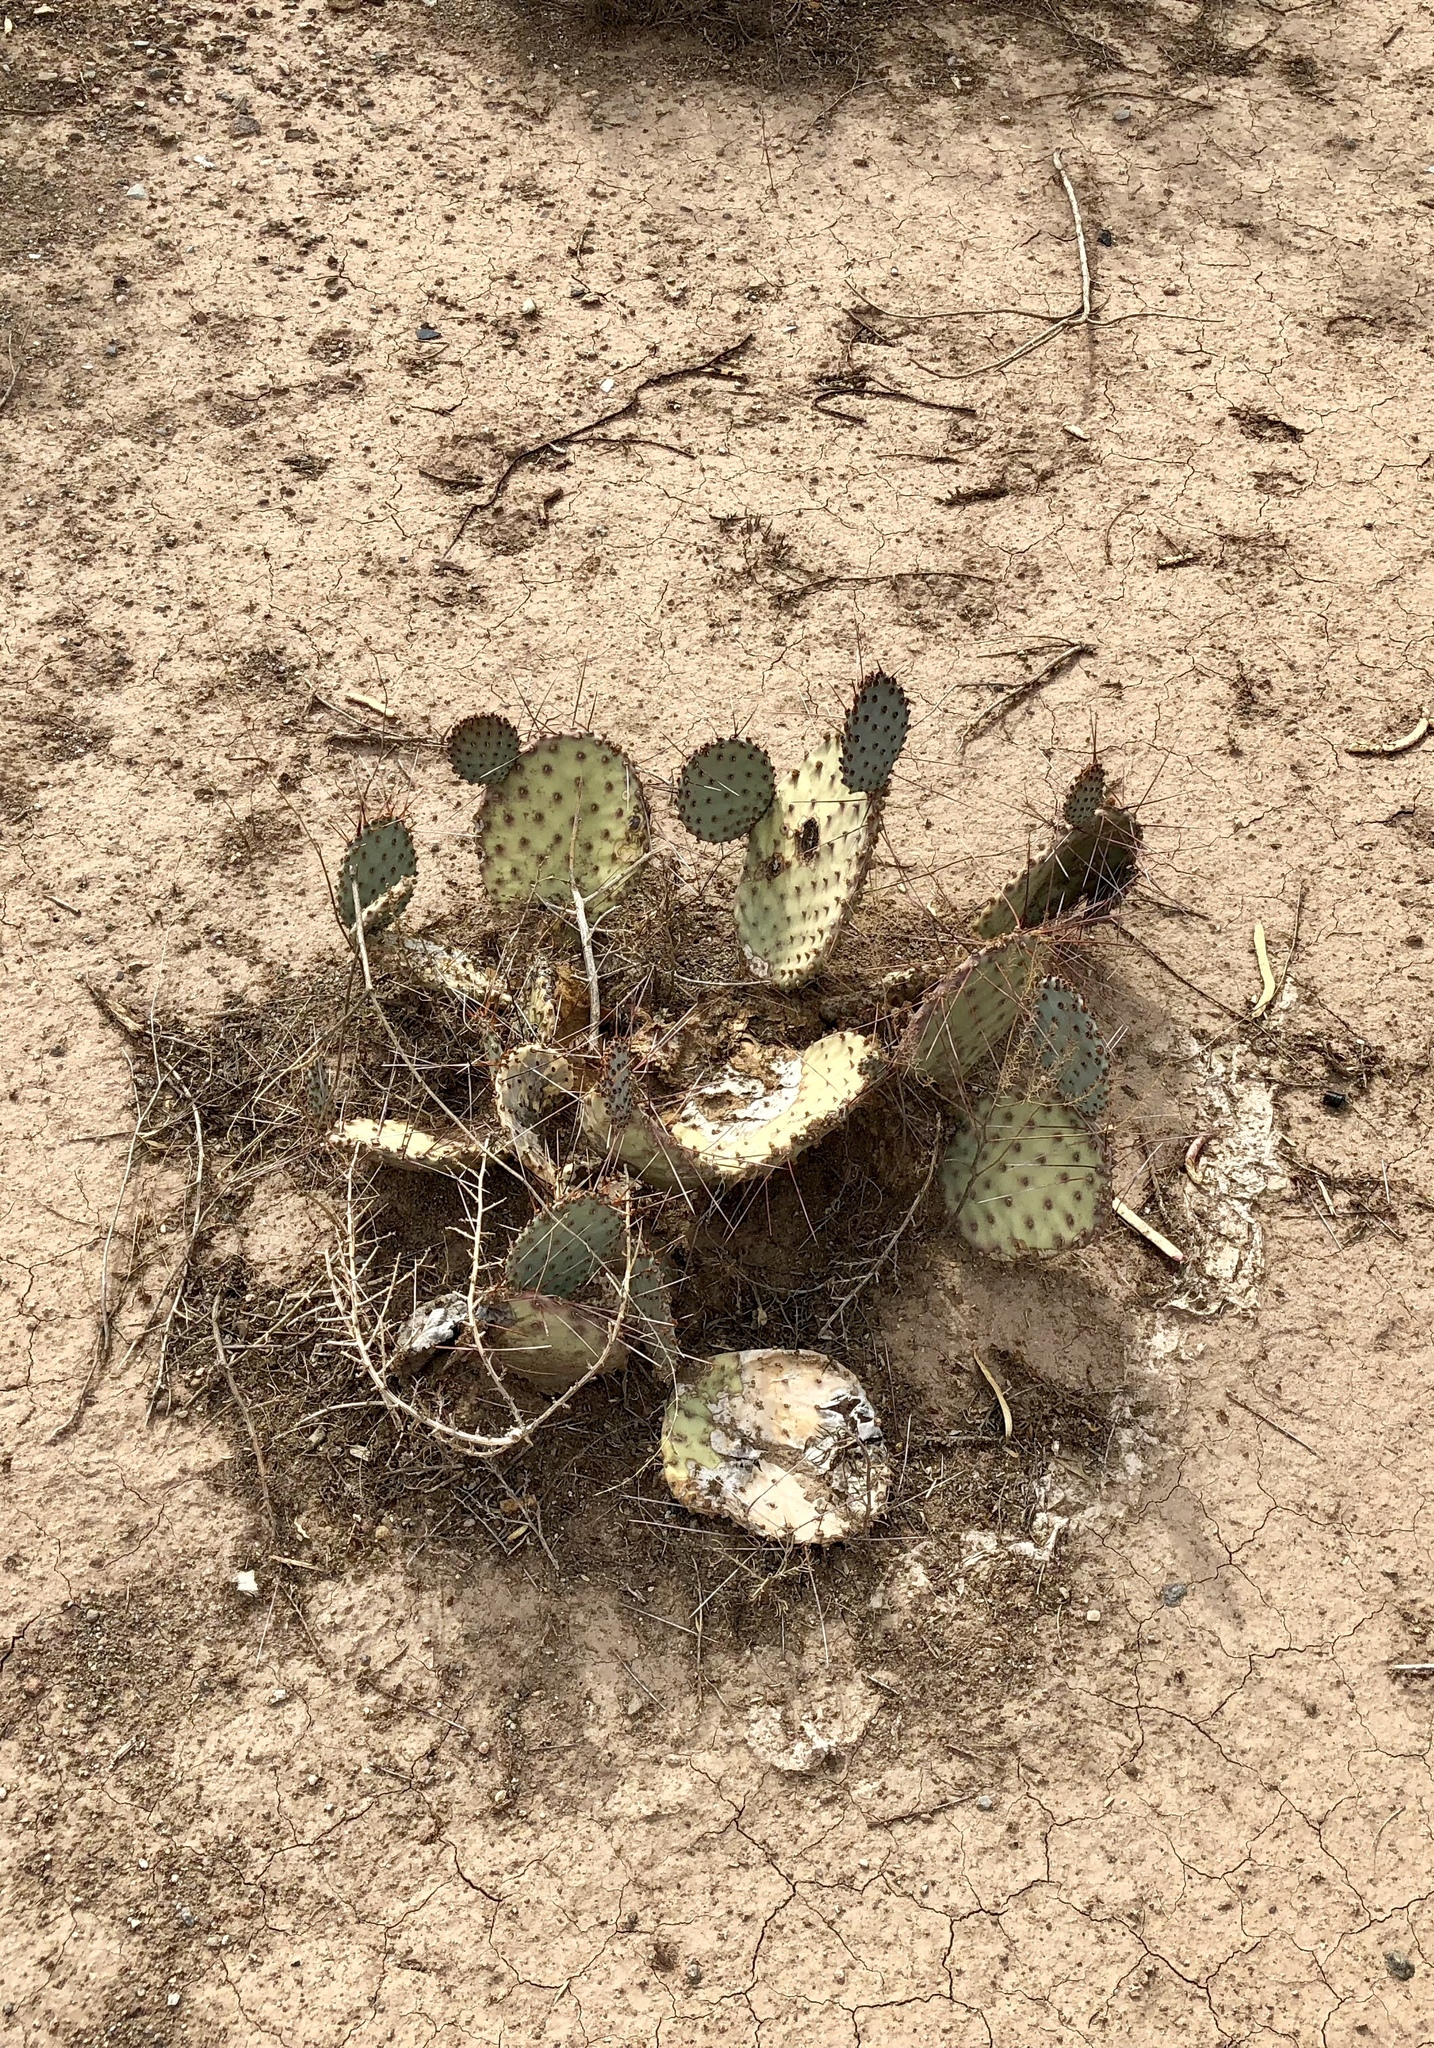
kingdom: Plantae
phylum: Tracheophyta
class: Magnoliopsida
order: Caryophyllales
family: Cactaceae
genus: Opuntia
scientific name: Opuntia macrocentra
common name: Purple prickly-pear
